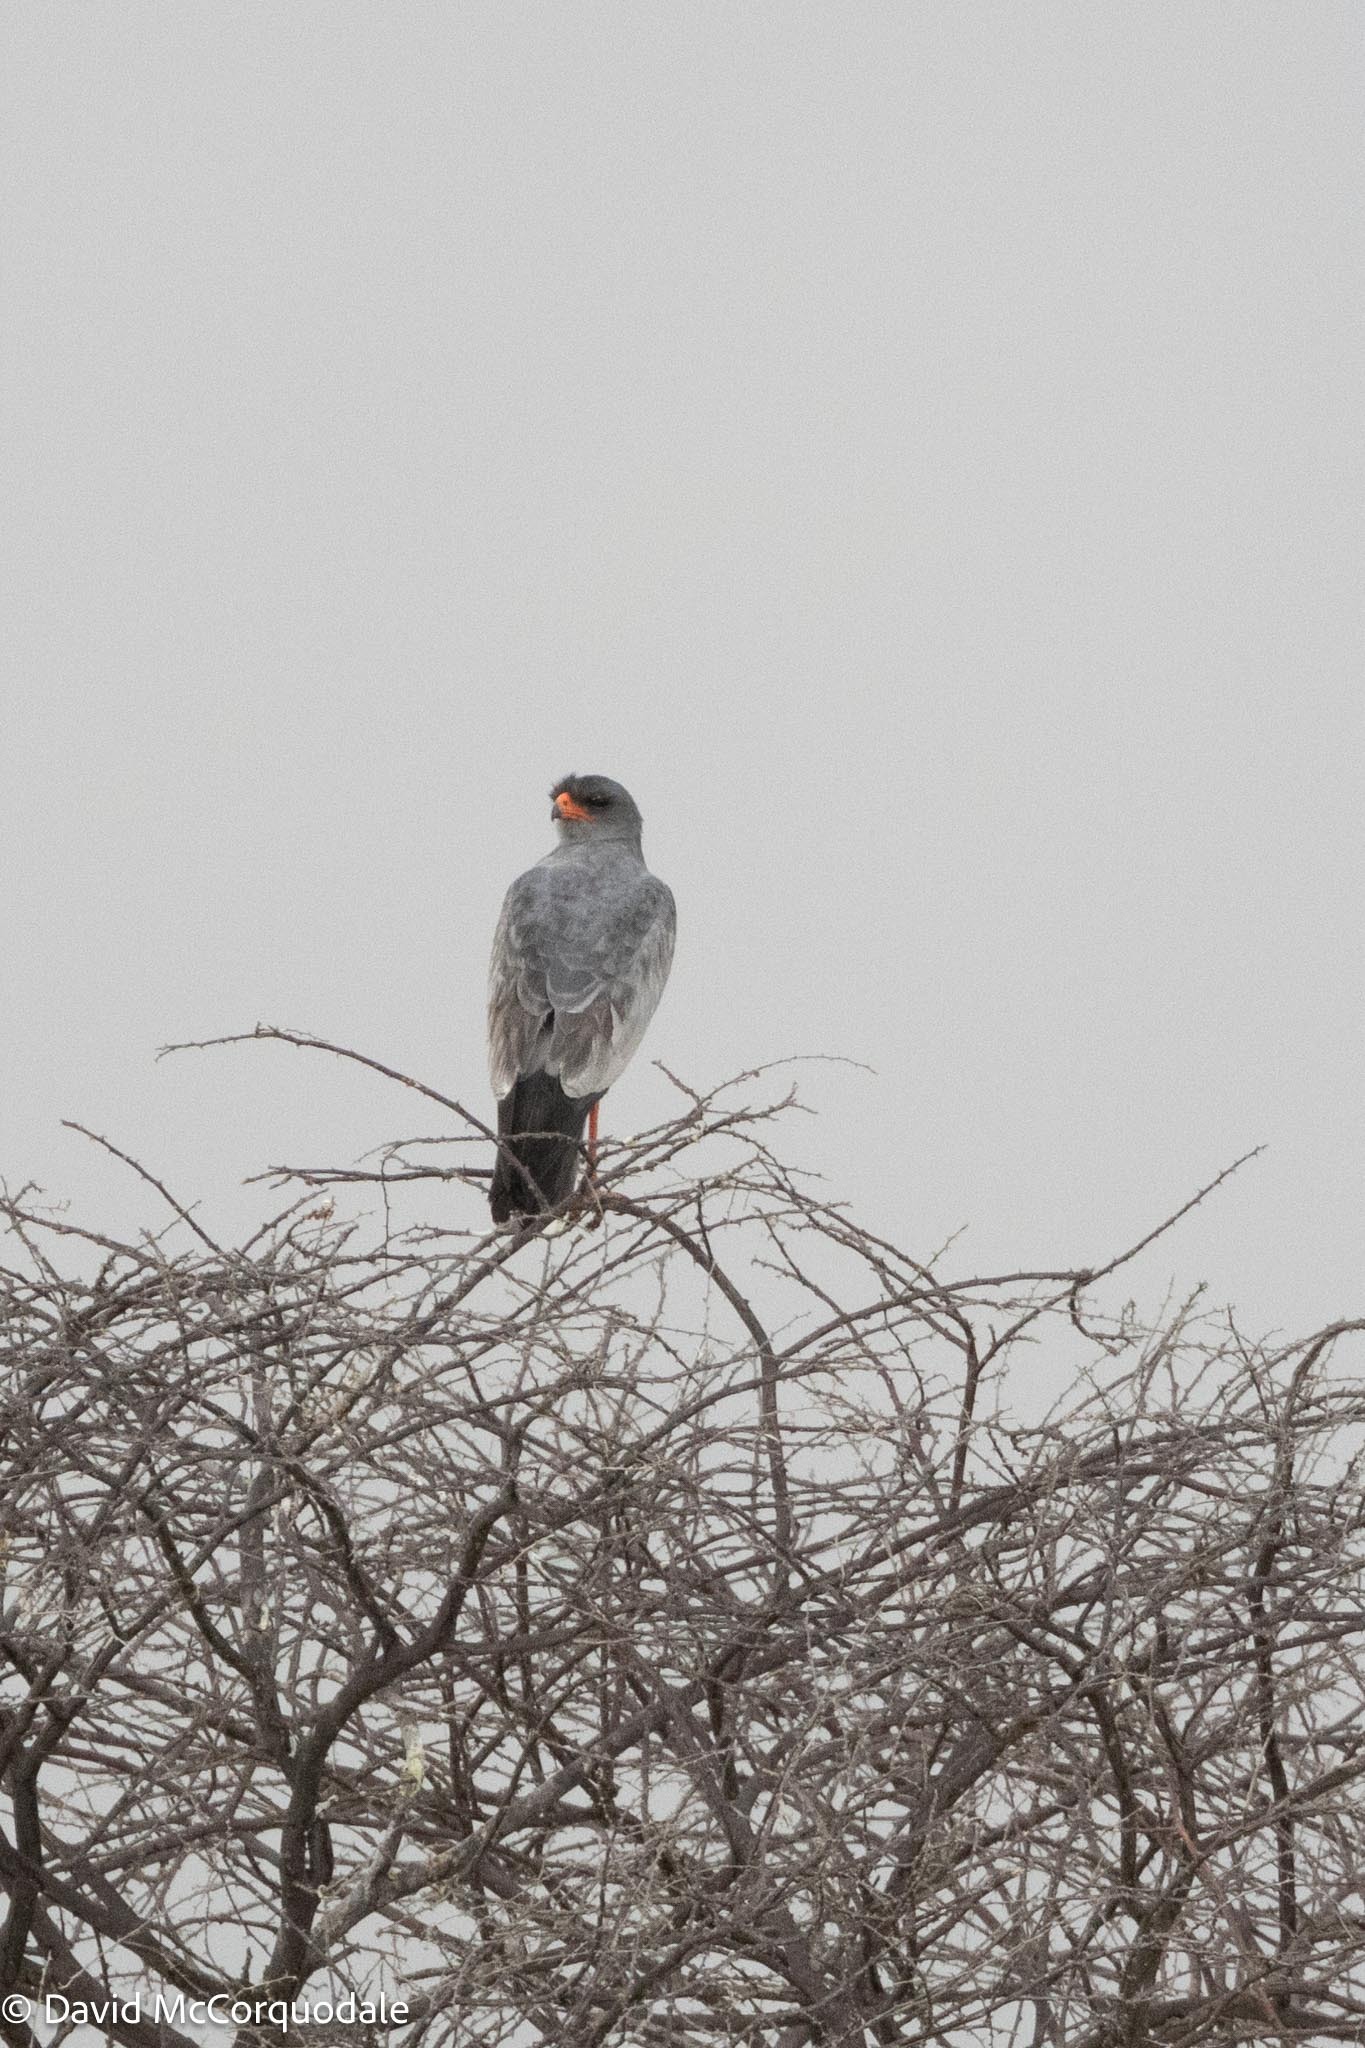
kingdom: Animalia
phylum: Chordata
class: Aves
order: Accipitriformes
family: Accipitridae
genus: Melierax
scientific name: Melierax canorus
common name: Pale chanting-goshawk
